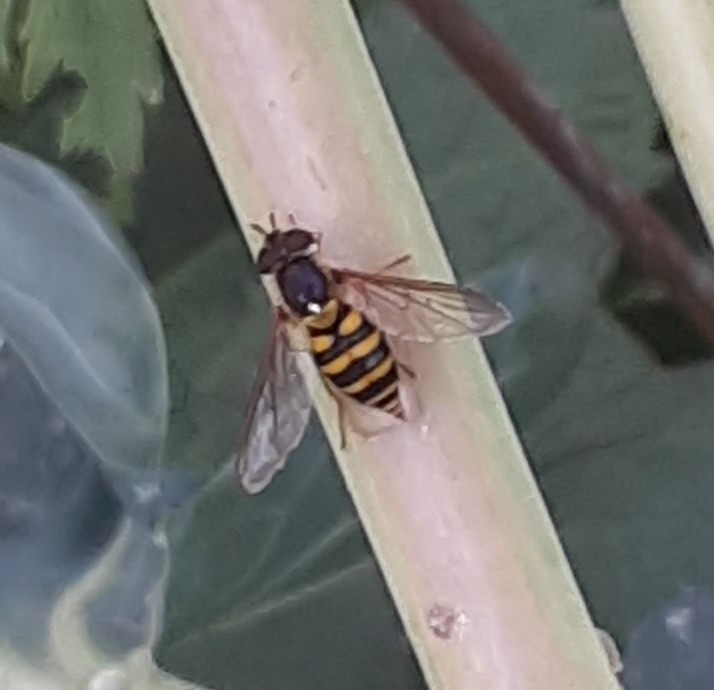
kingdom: Animalia
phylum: Arthropoda
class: Insecta
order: Diptera
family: Syrphidae
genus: Syrphus
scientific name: Syrphus
